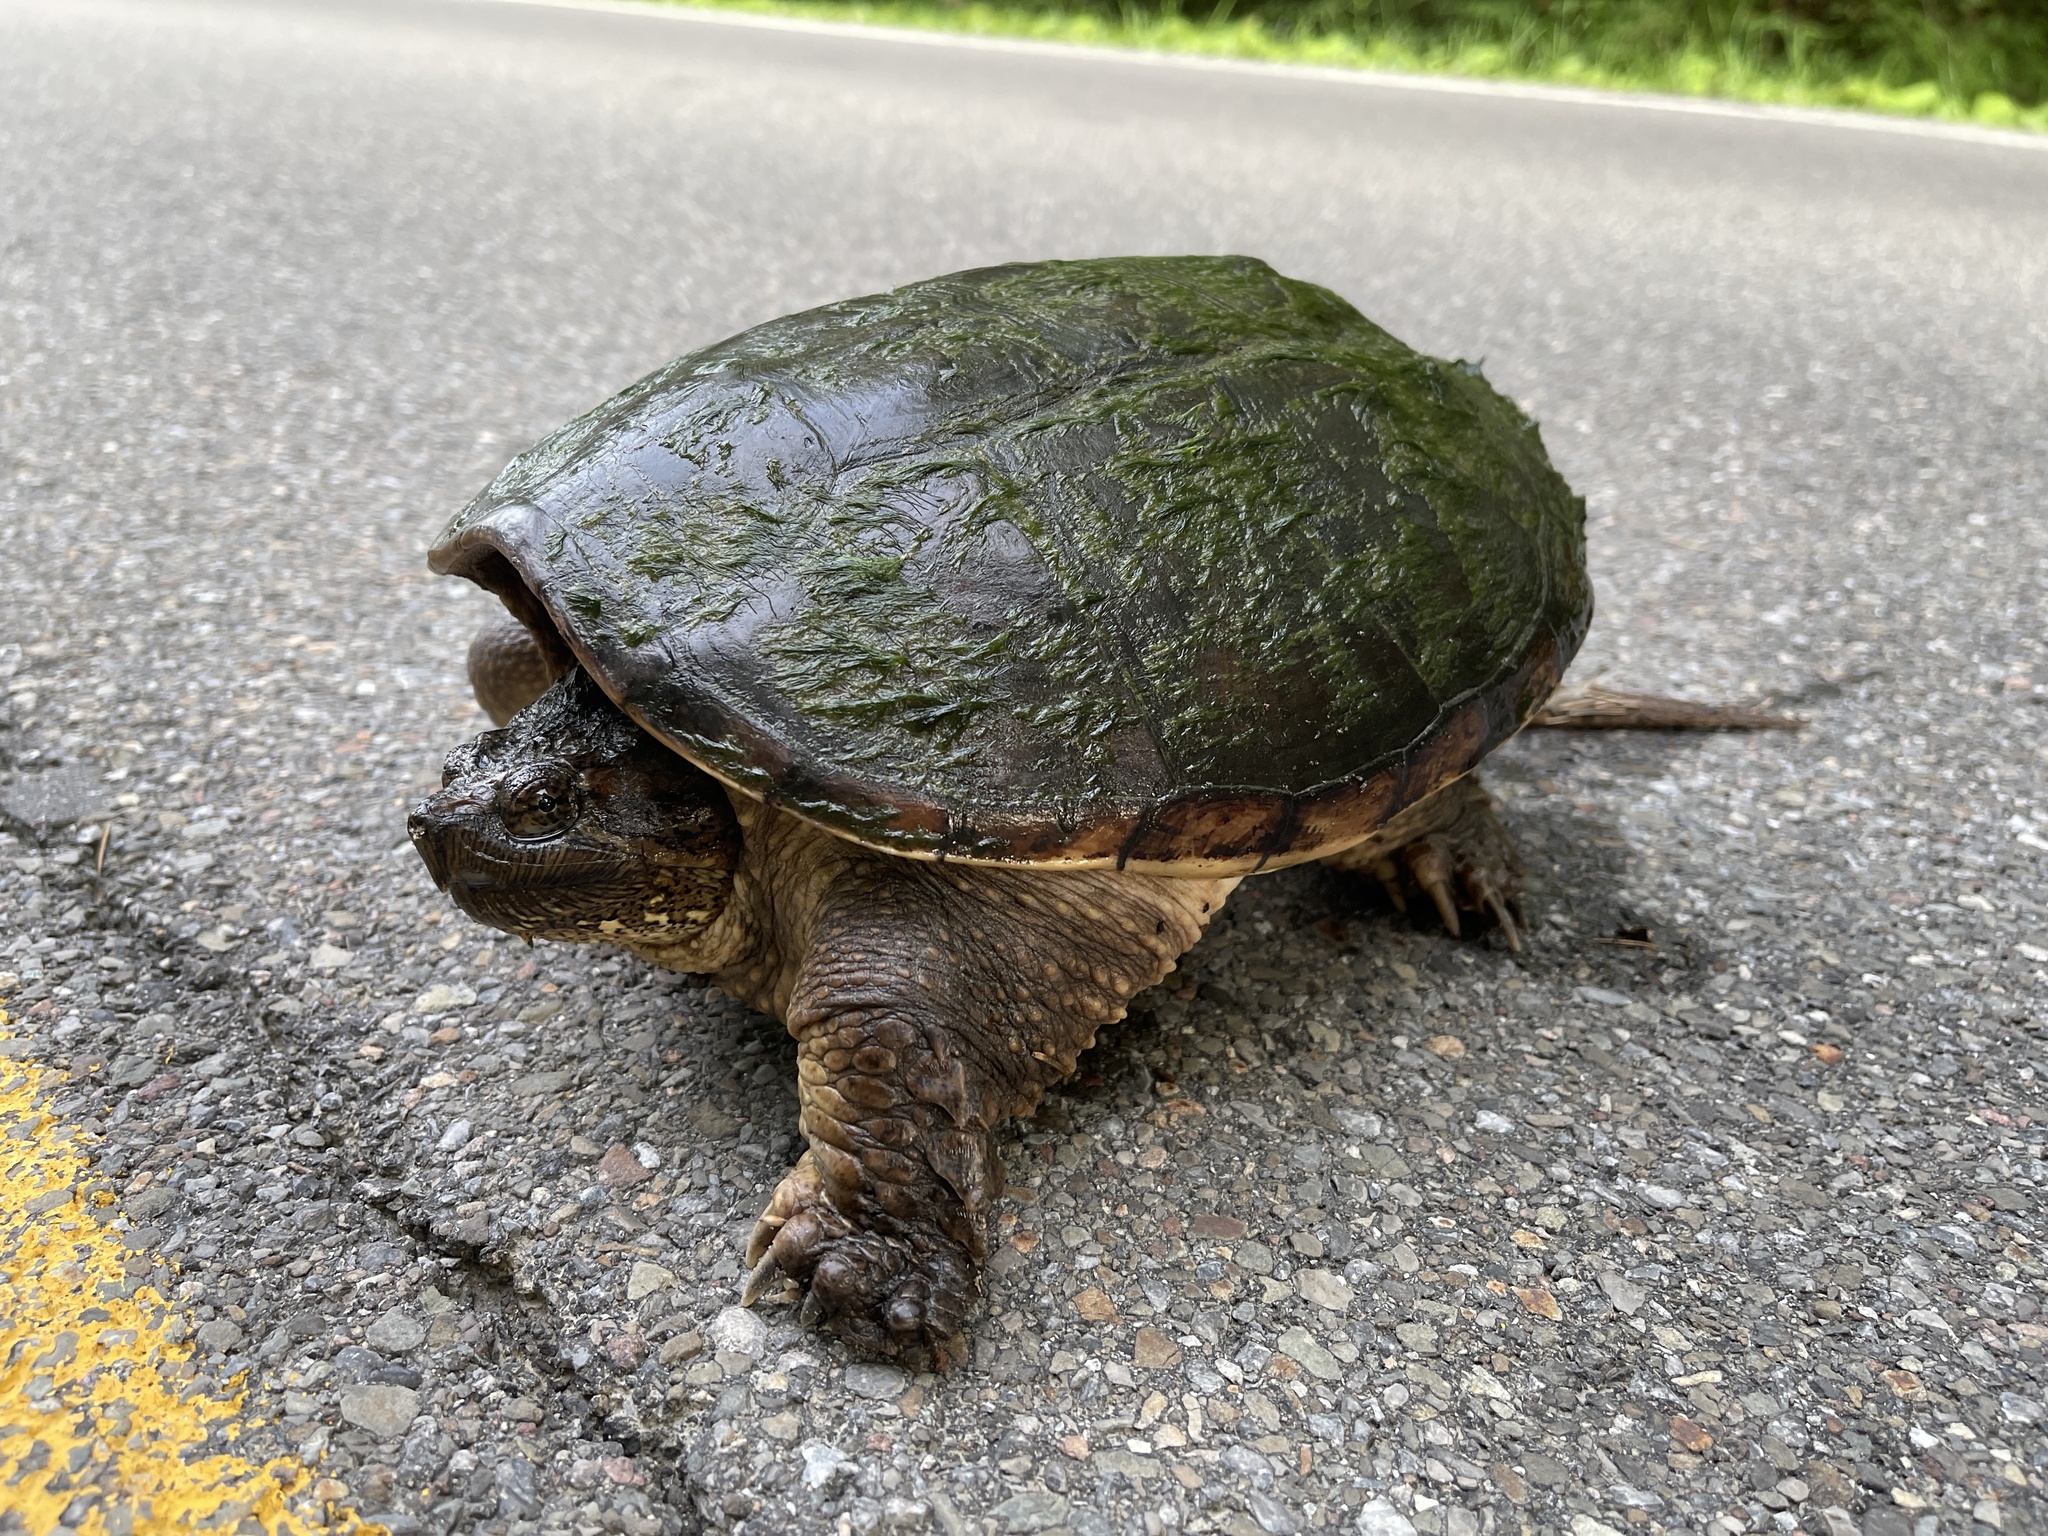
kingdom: Animalia
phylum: Chordata
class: Testudines
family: Chelydridae
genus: Chelydra
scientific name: Chelydra serpentina
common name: Common snapping turtle
